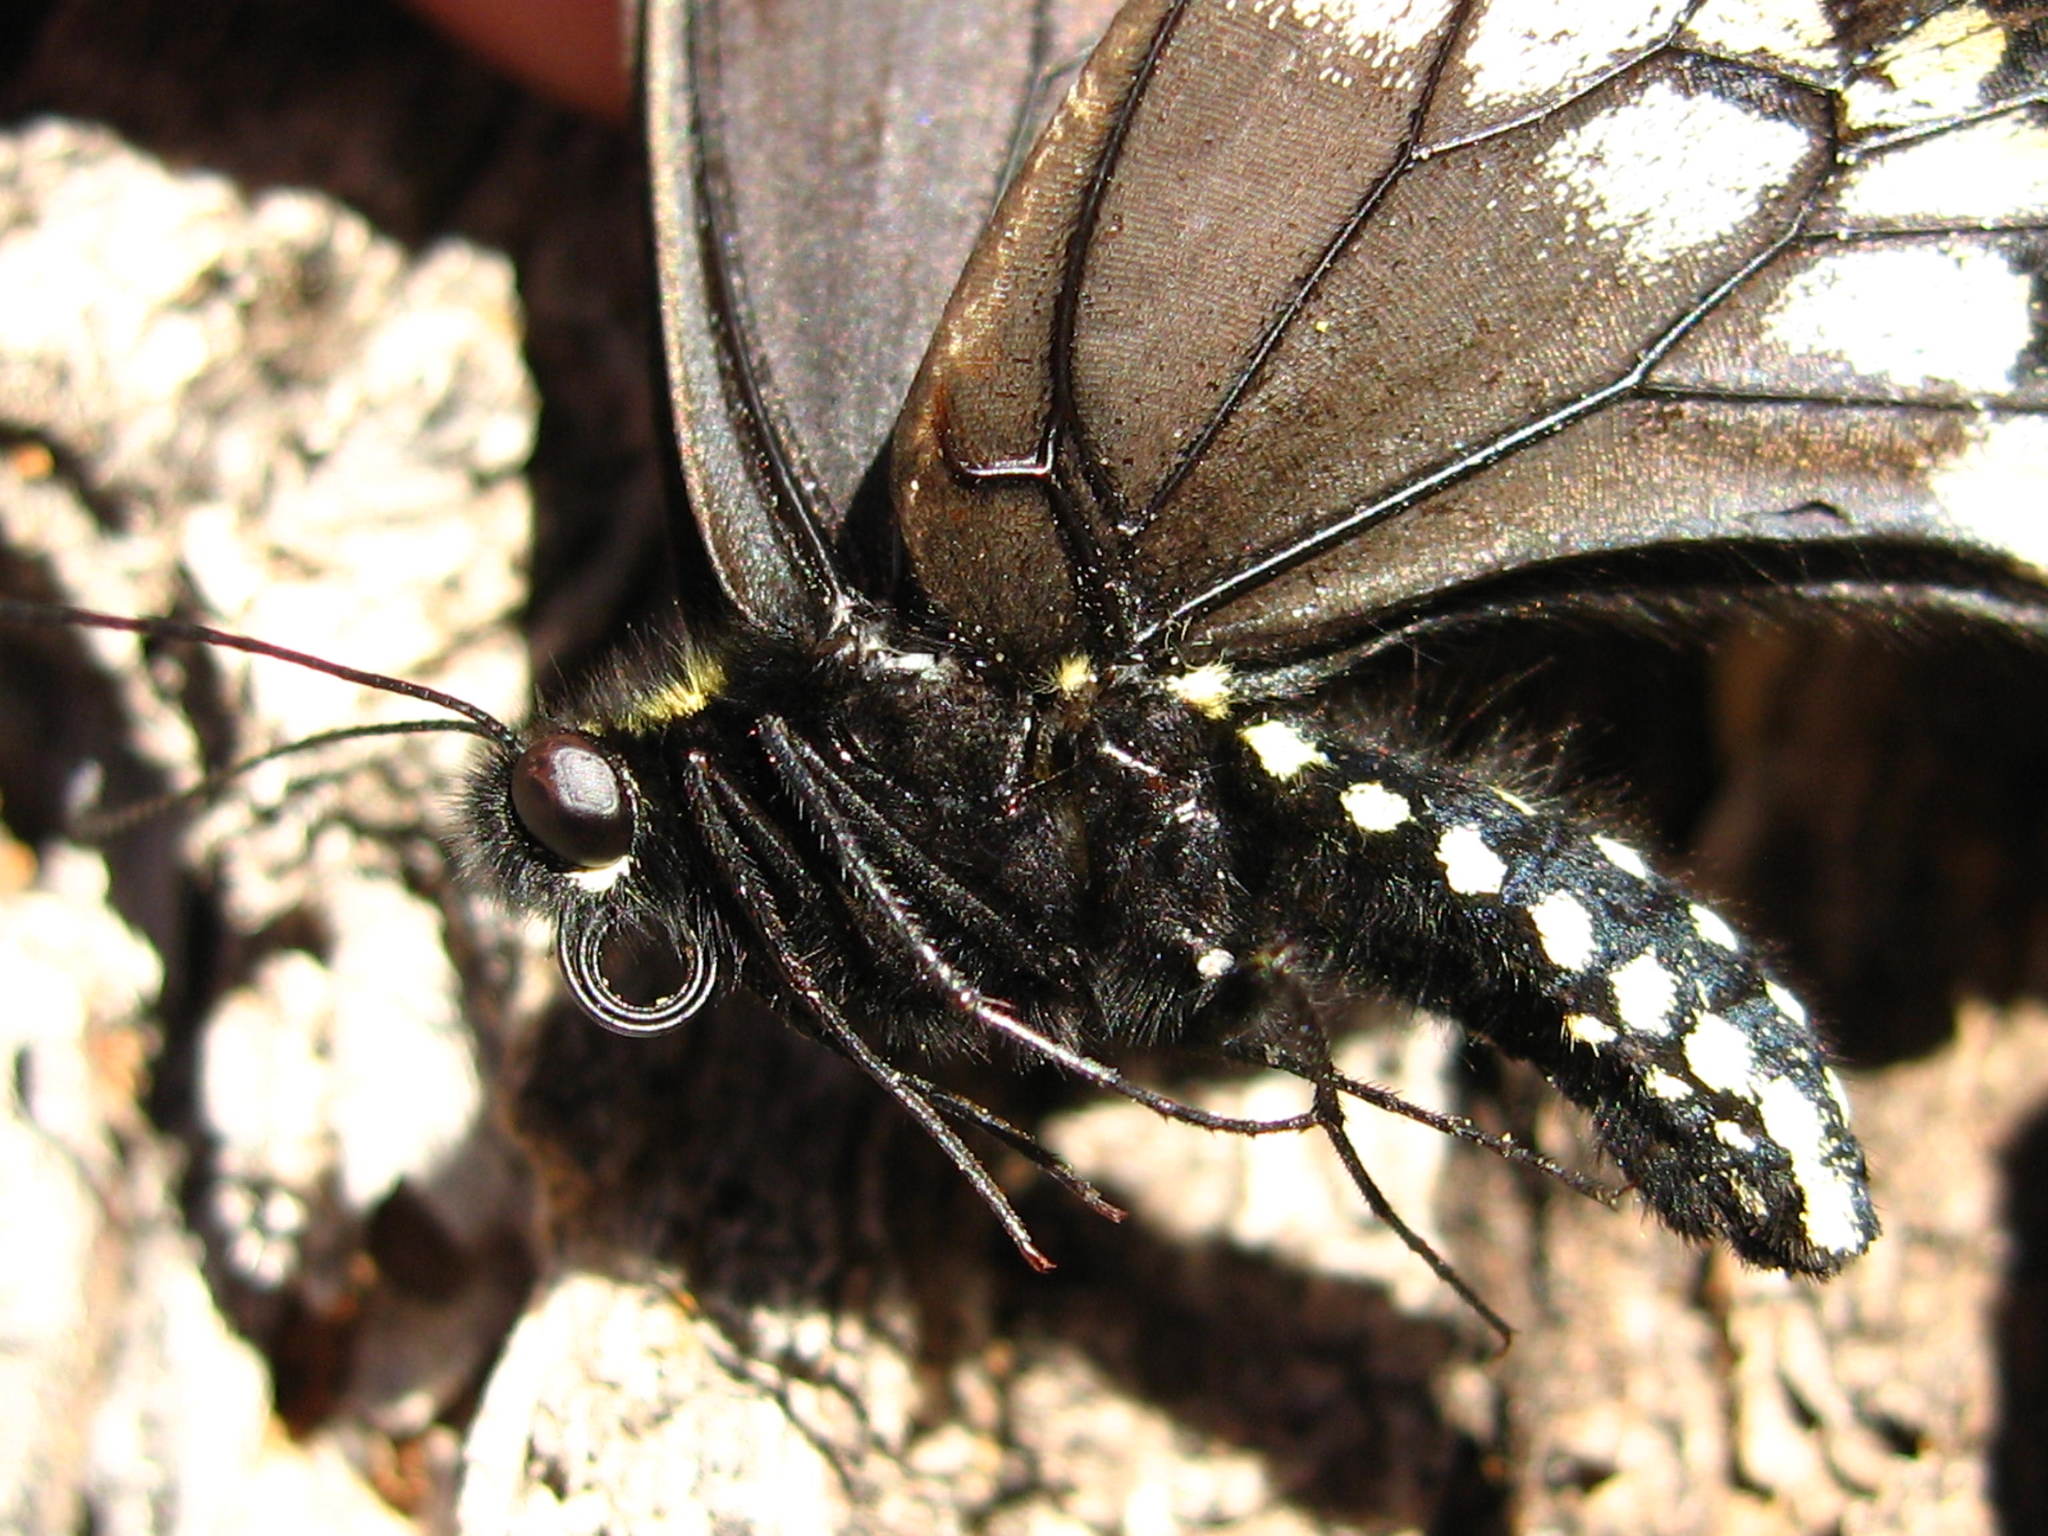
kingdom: Animalia
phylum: Arthropoda
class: Insecta
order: Lepidoptera
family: Papilionidae
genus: Papilio
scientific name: Papilio polyxenes
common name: Black swallowtail
